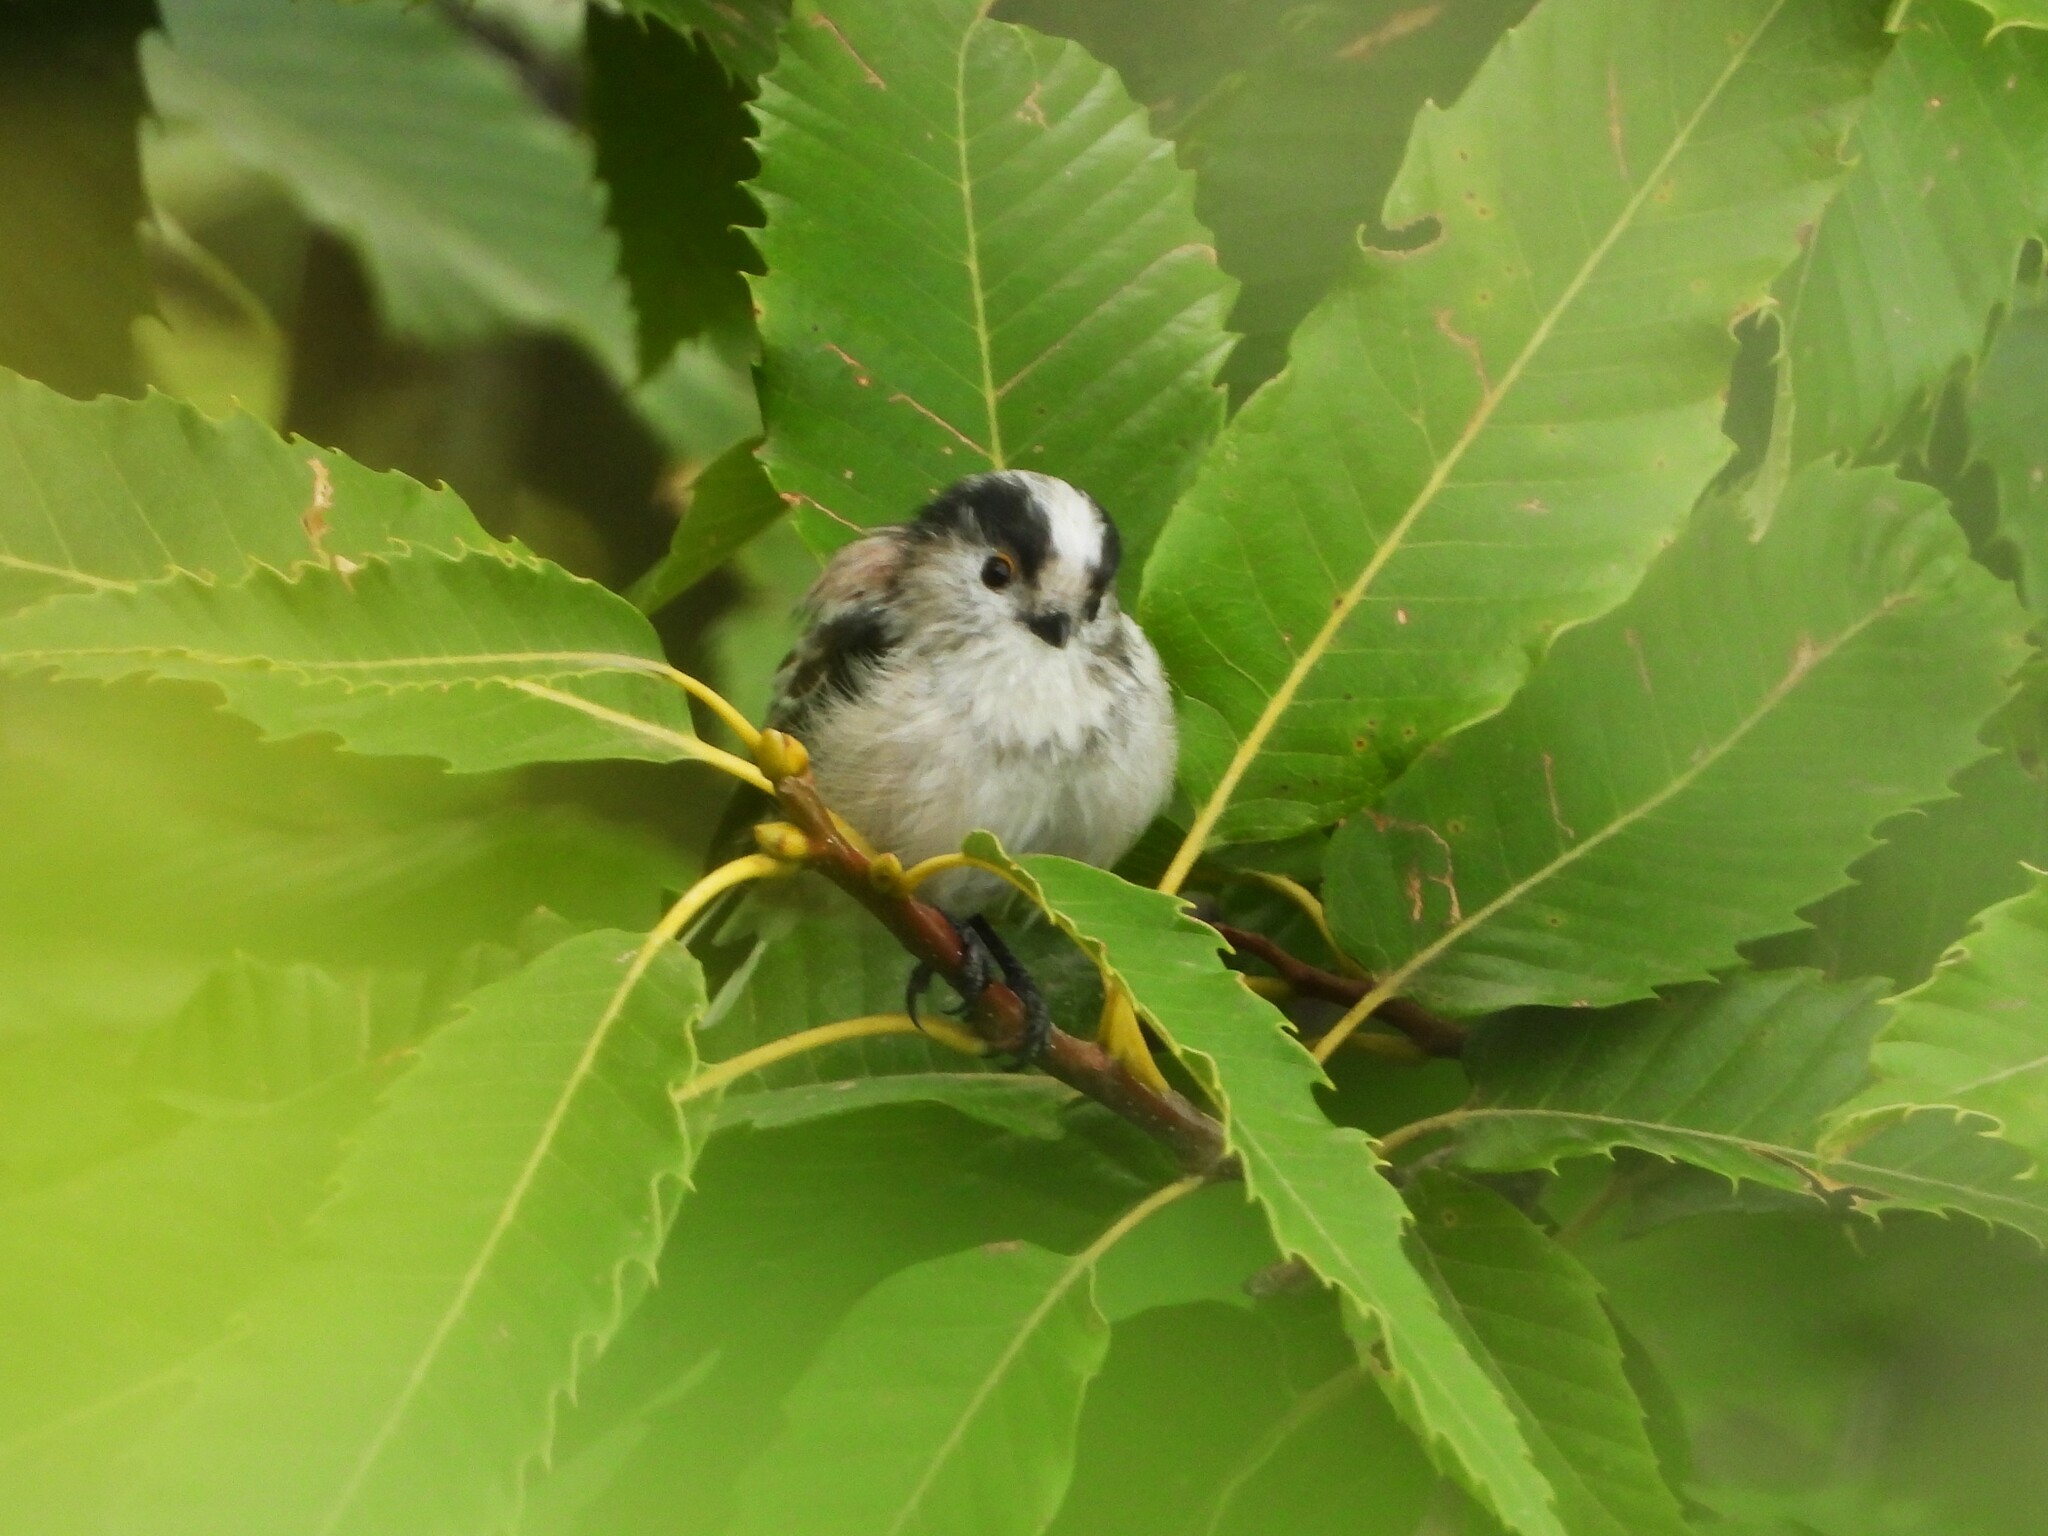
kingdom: Animalia
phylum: Chordata
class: Aves
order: Passeriformes
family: Aegithalidae
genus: Aegithalos
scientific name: Aegithalos caudatus
